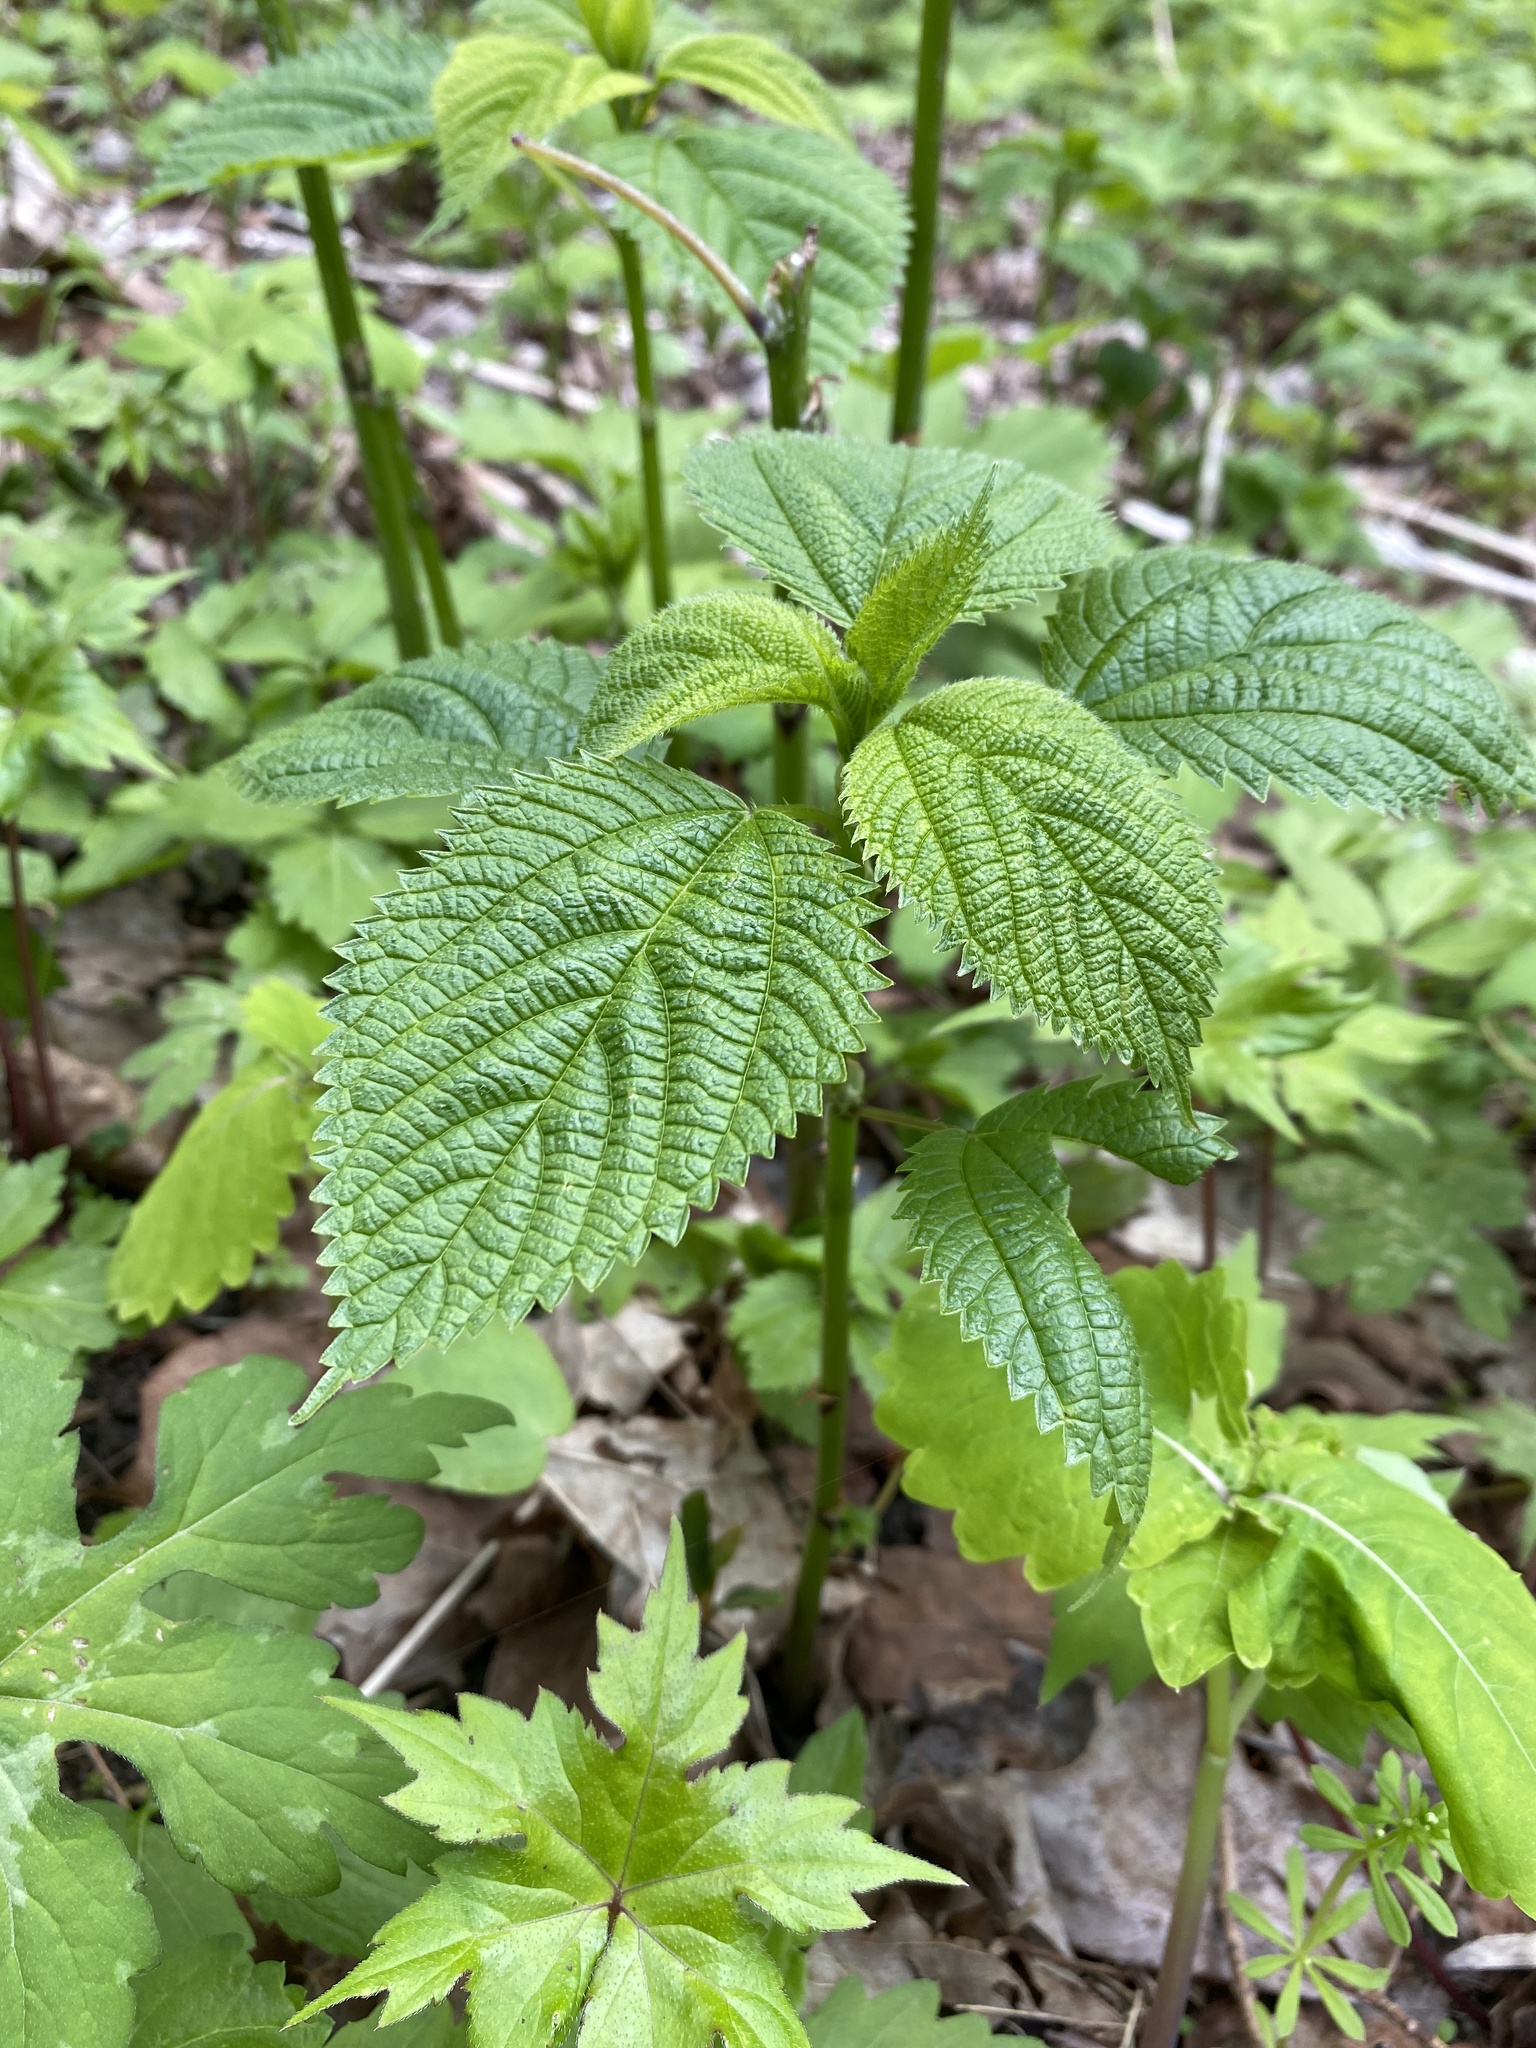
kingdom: Plantae
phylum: Tracheophyta
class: Magnoliopsida
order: Rosales
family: Urticaceae
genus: Laportea
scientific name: Laportea canadensis
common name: Canada nettle
